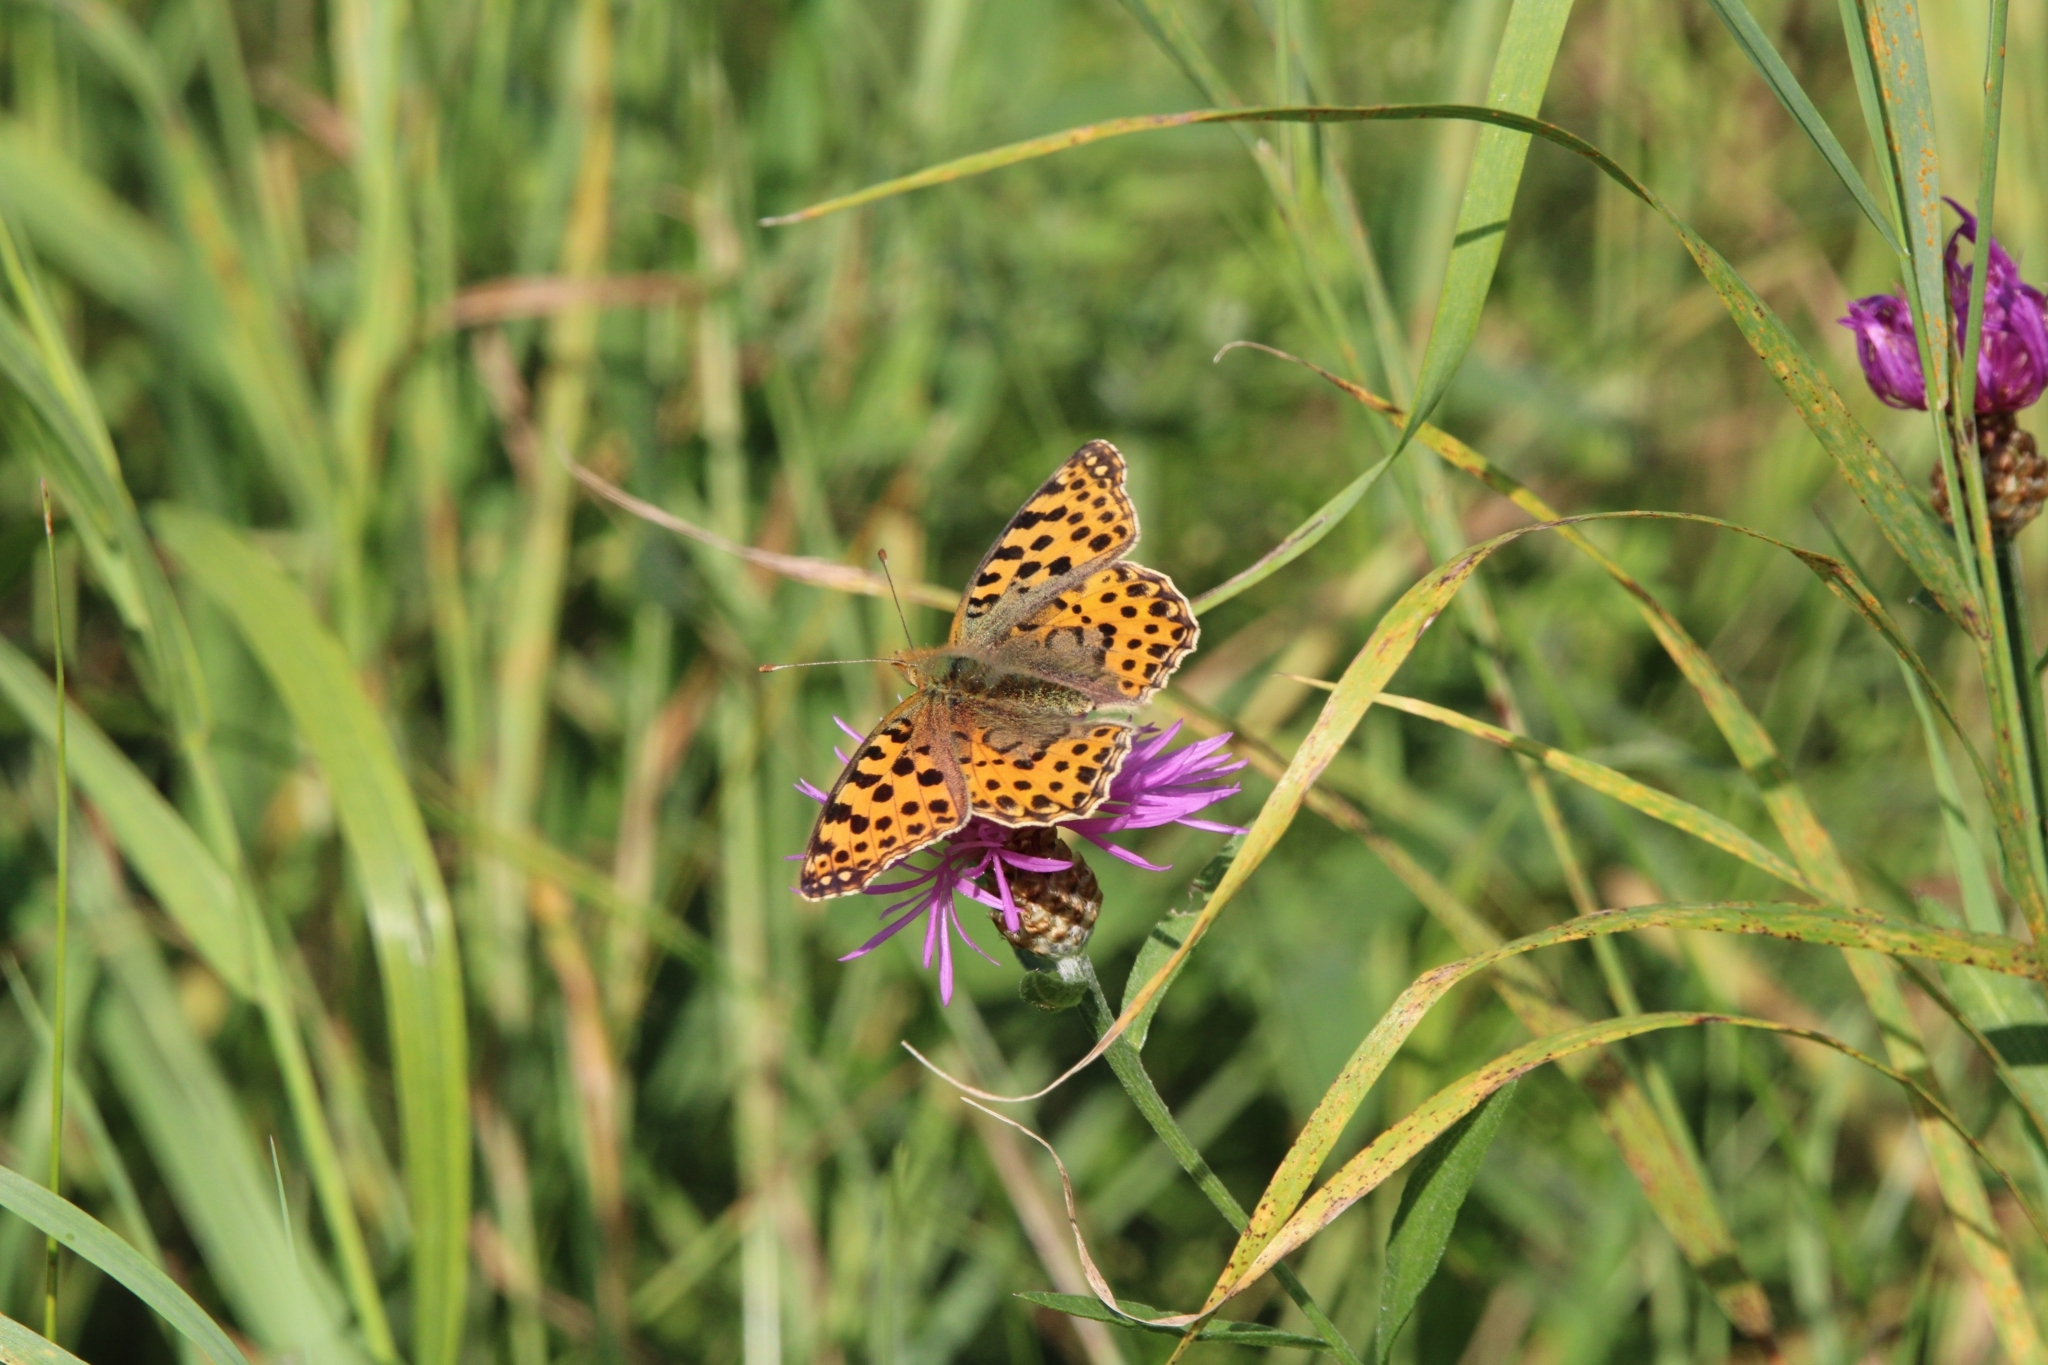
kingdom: Animalia
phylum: Arthropoda
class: Insecta
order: Lepidoptera
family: Nymphalidae
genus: Issoria
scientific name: Issoria lathonia
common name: Queen of spain fritillary
